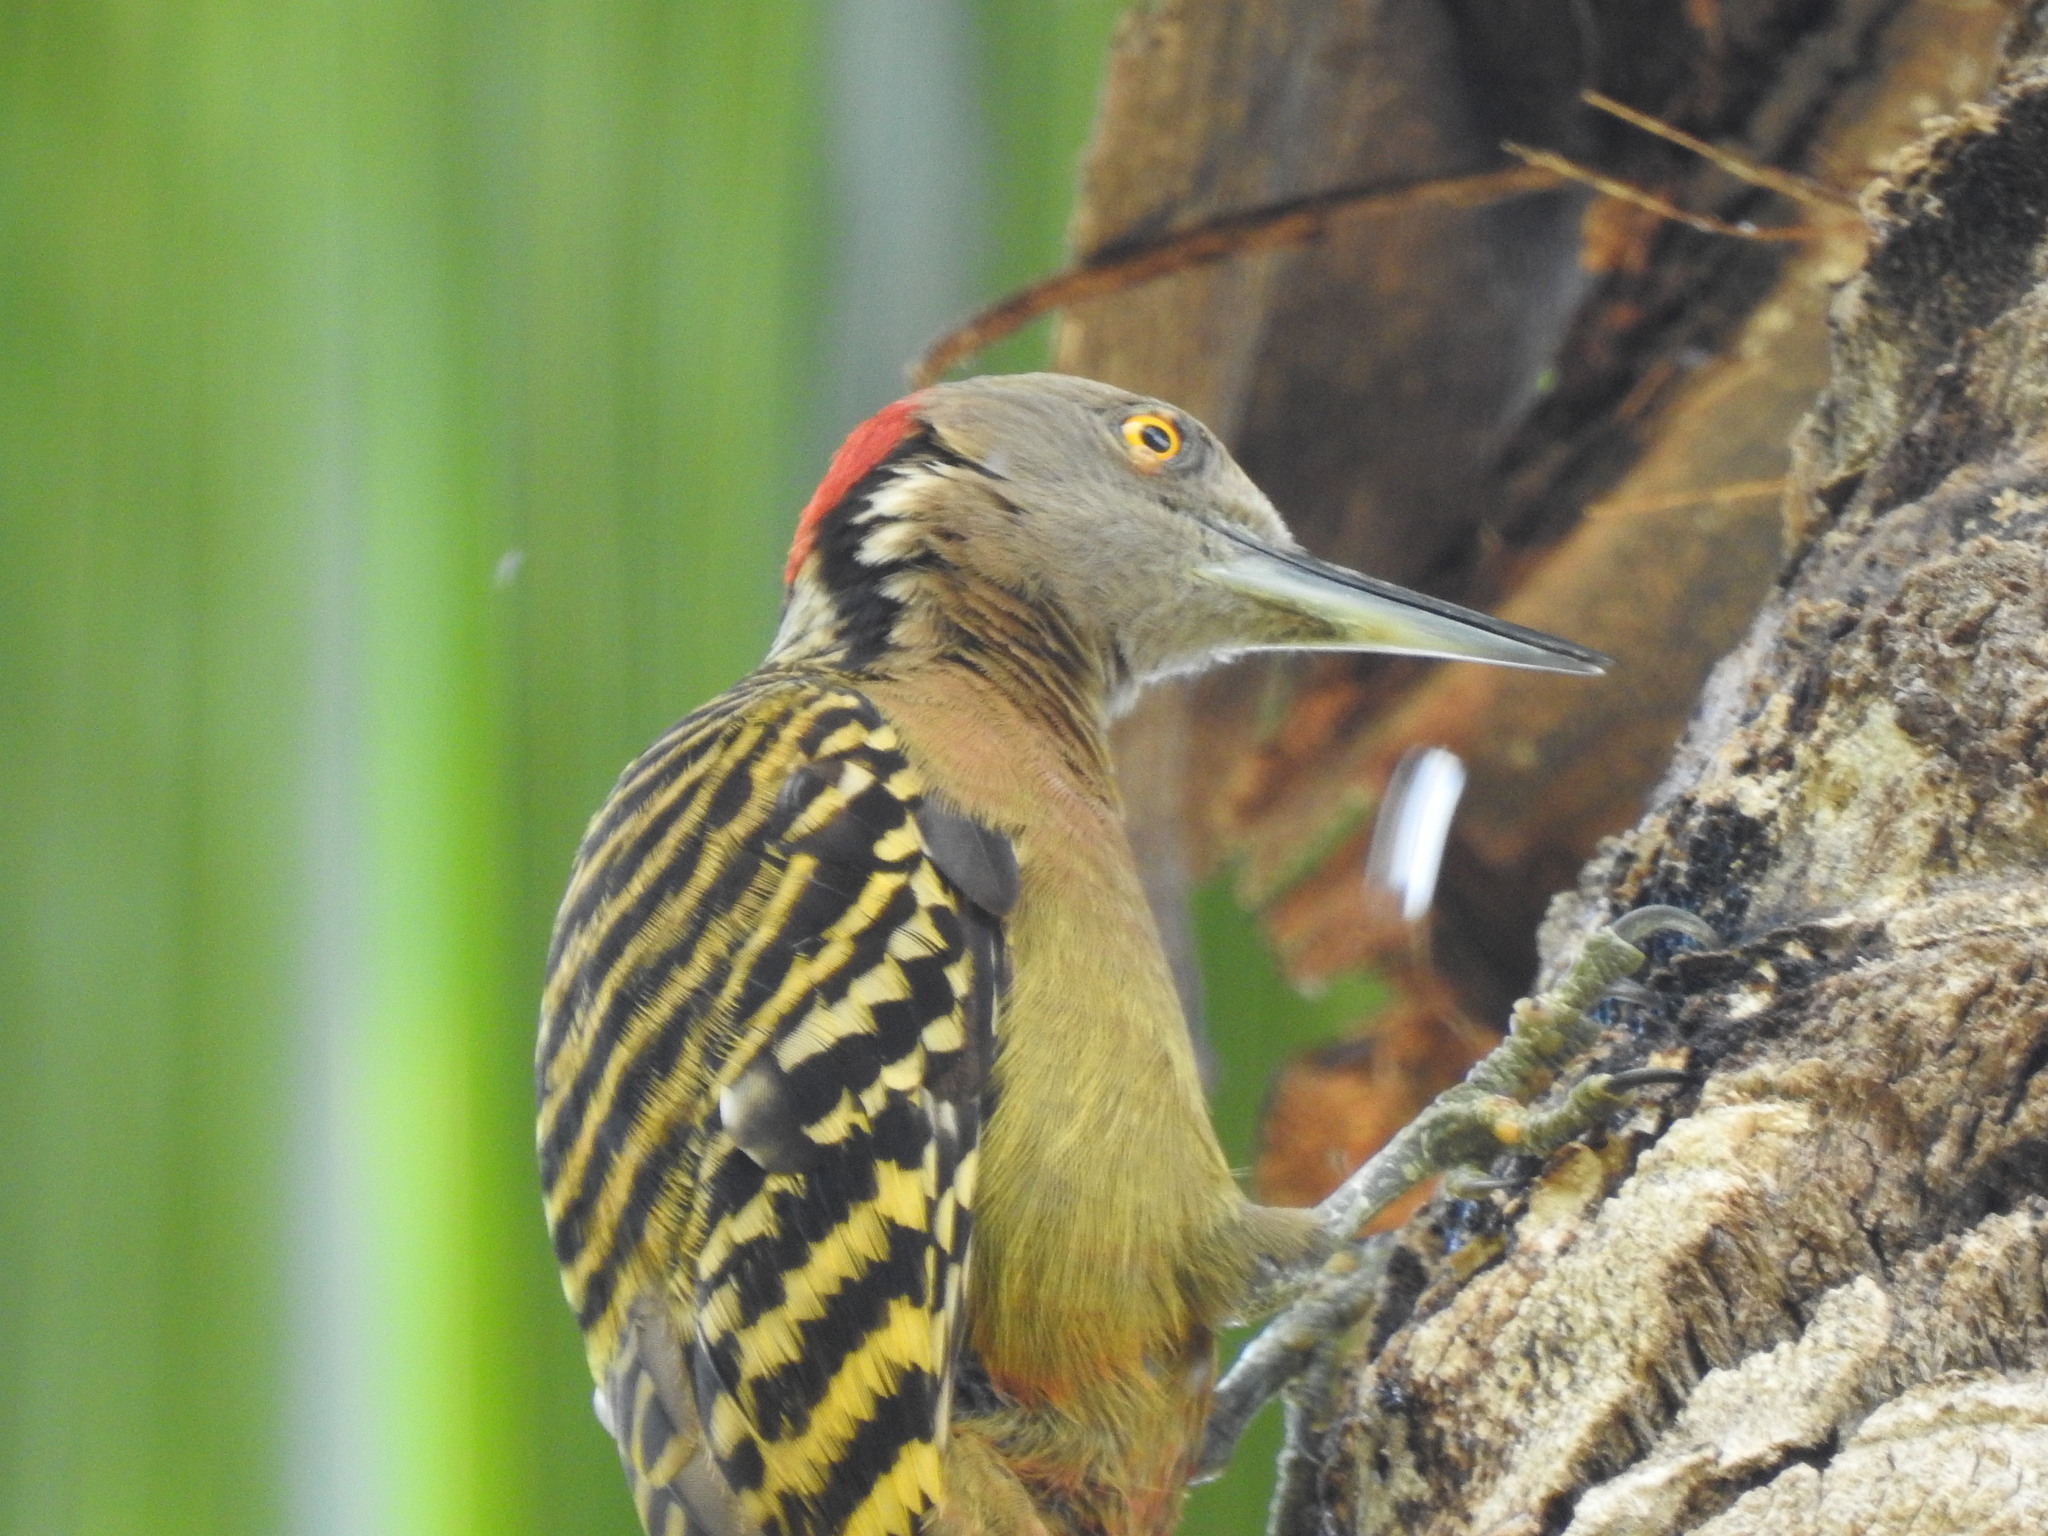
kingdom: Animalia
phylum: Chordata
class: Aves
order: Piciformes
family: Picidae
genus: Melanerpes
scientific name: Melanerpes striatus
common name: Hispaniolan woodpecker
